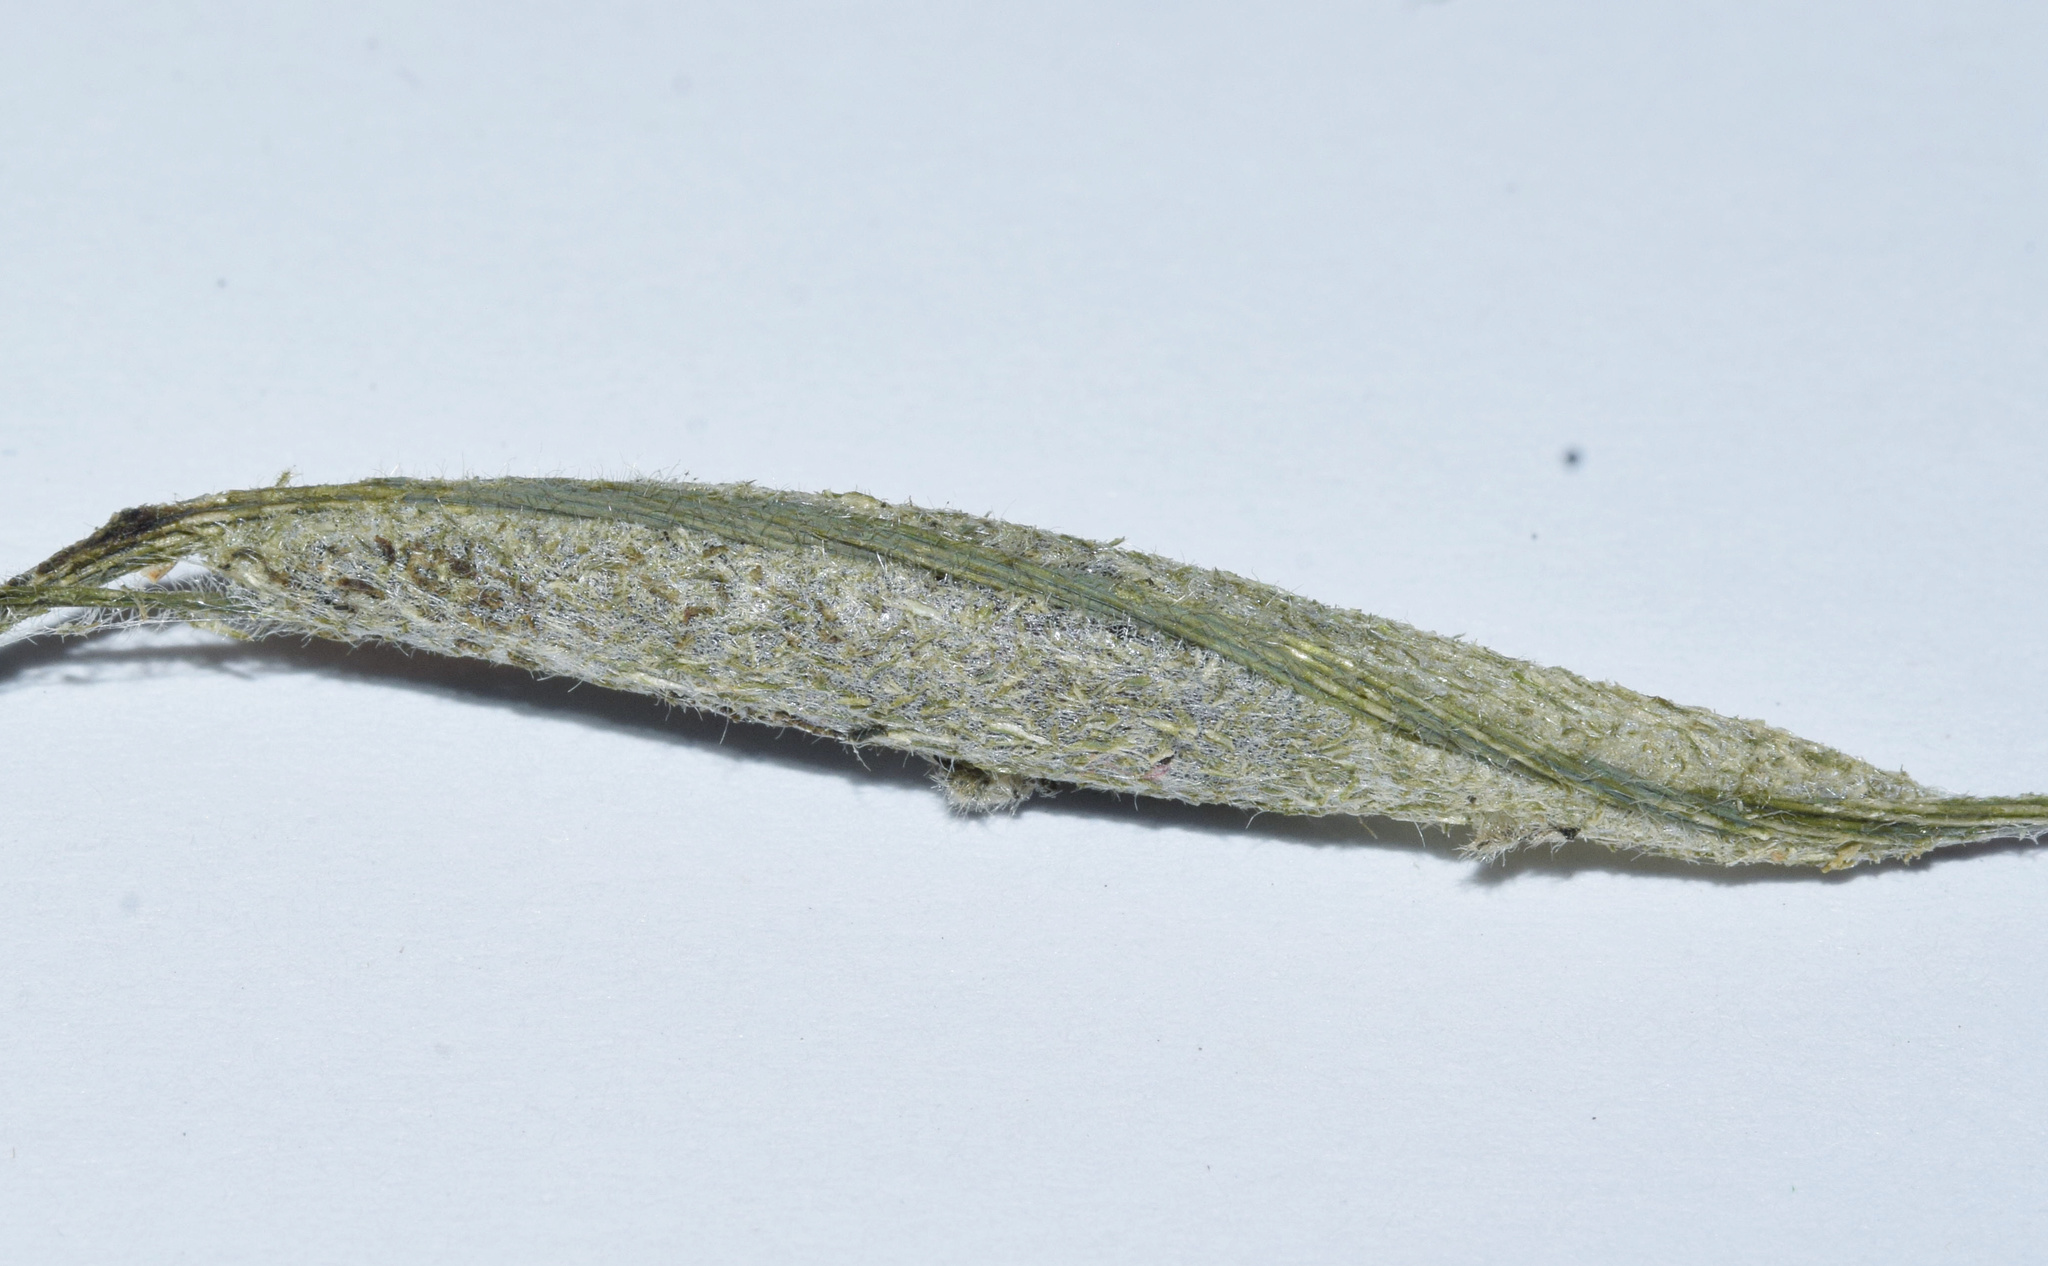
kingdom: Animalia
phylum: Arthropoda
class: Insecta
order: Lepidoptera
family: Erebidae
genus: Plusiodonta
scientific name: Plusiodonta natalensis
